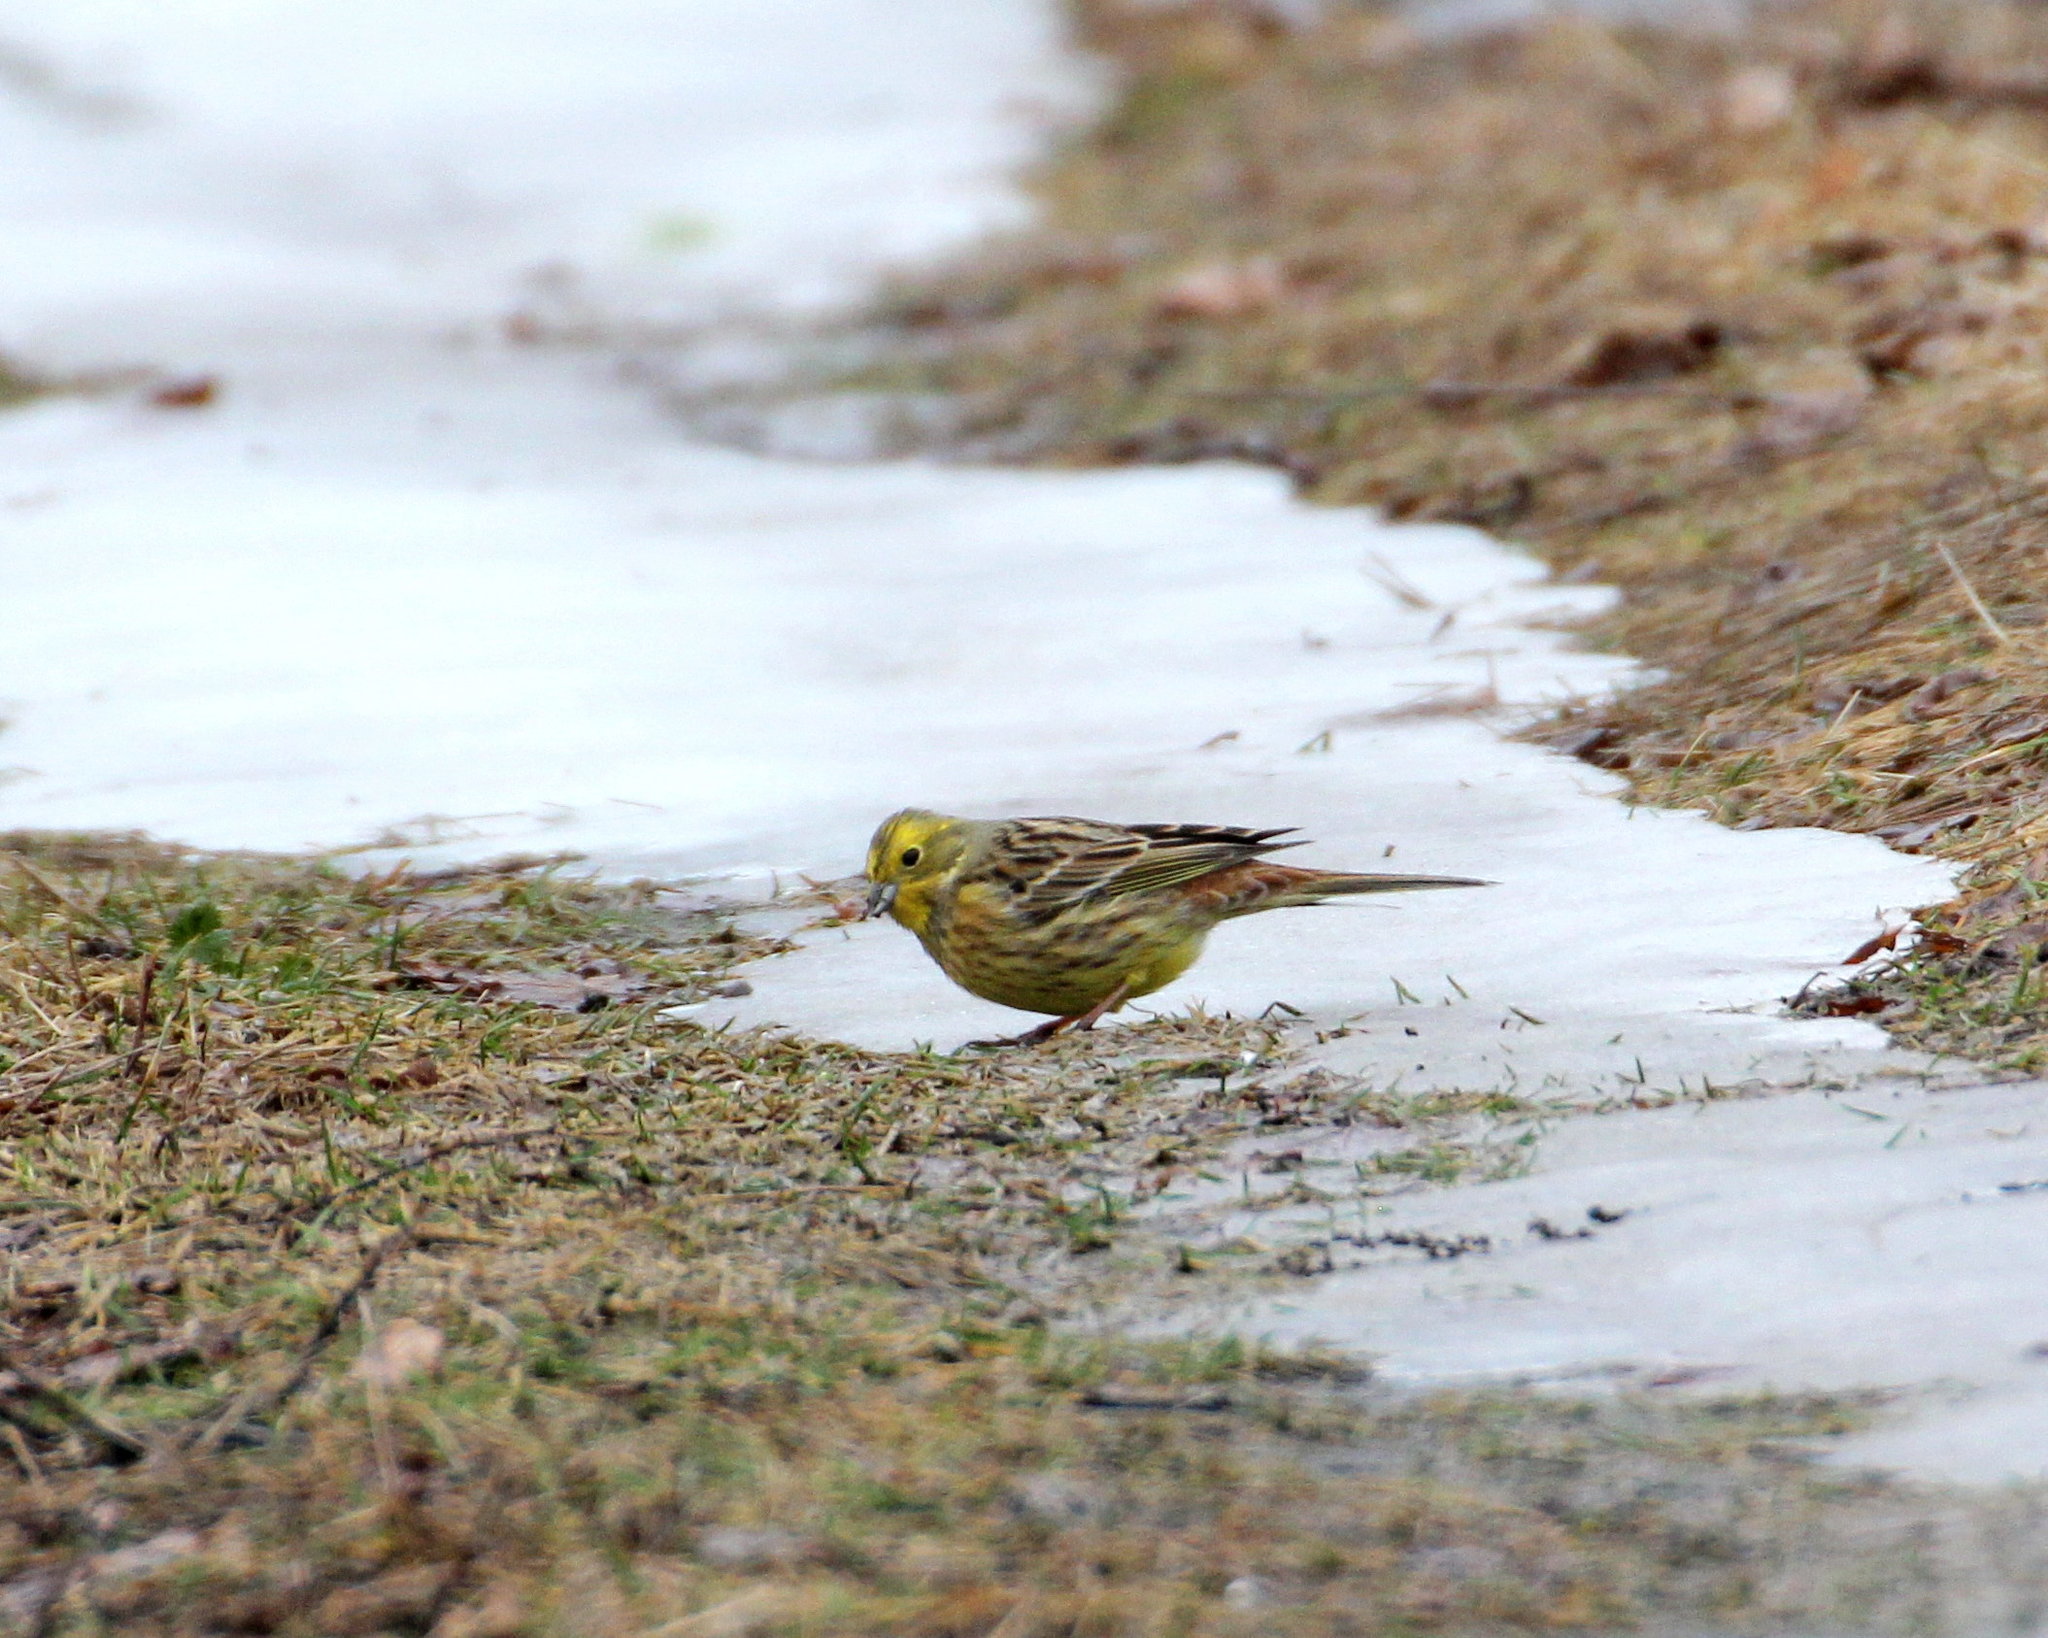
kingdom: Animalia
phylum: Chordata
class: Aves
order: Passeriformes
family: Emberizidae
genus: Emberiza
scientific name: Emberiza citrinella
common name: Yellowhammer
